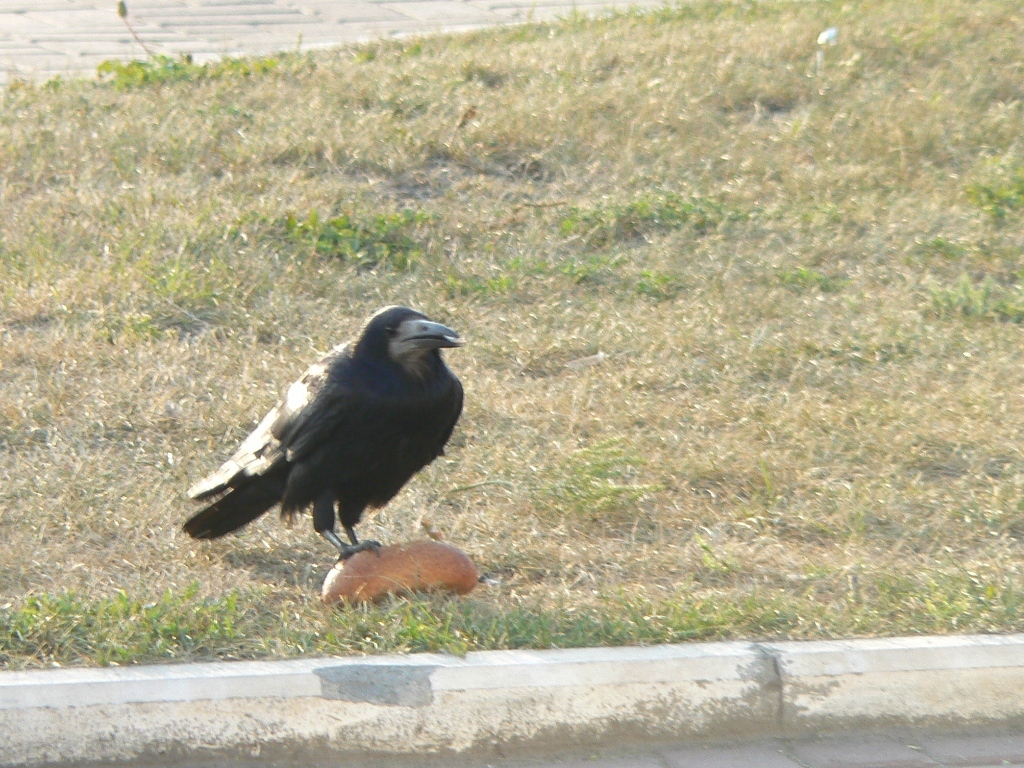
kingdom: Animalia
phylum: Chordata
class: Aves
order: Passeriformes
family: Corvidae
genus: Corvus
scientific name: Corvus frugilegus
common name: Rook
